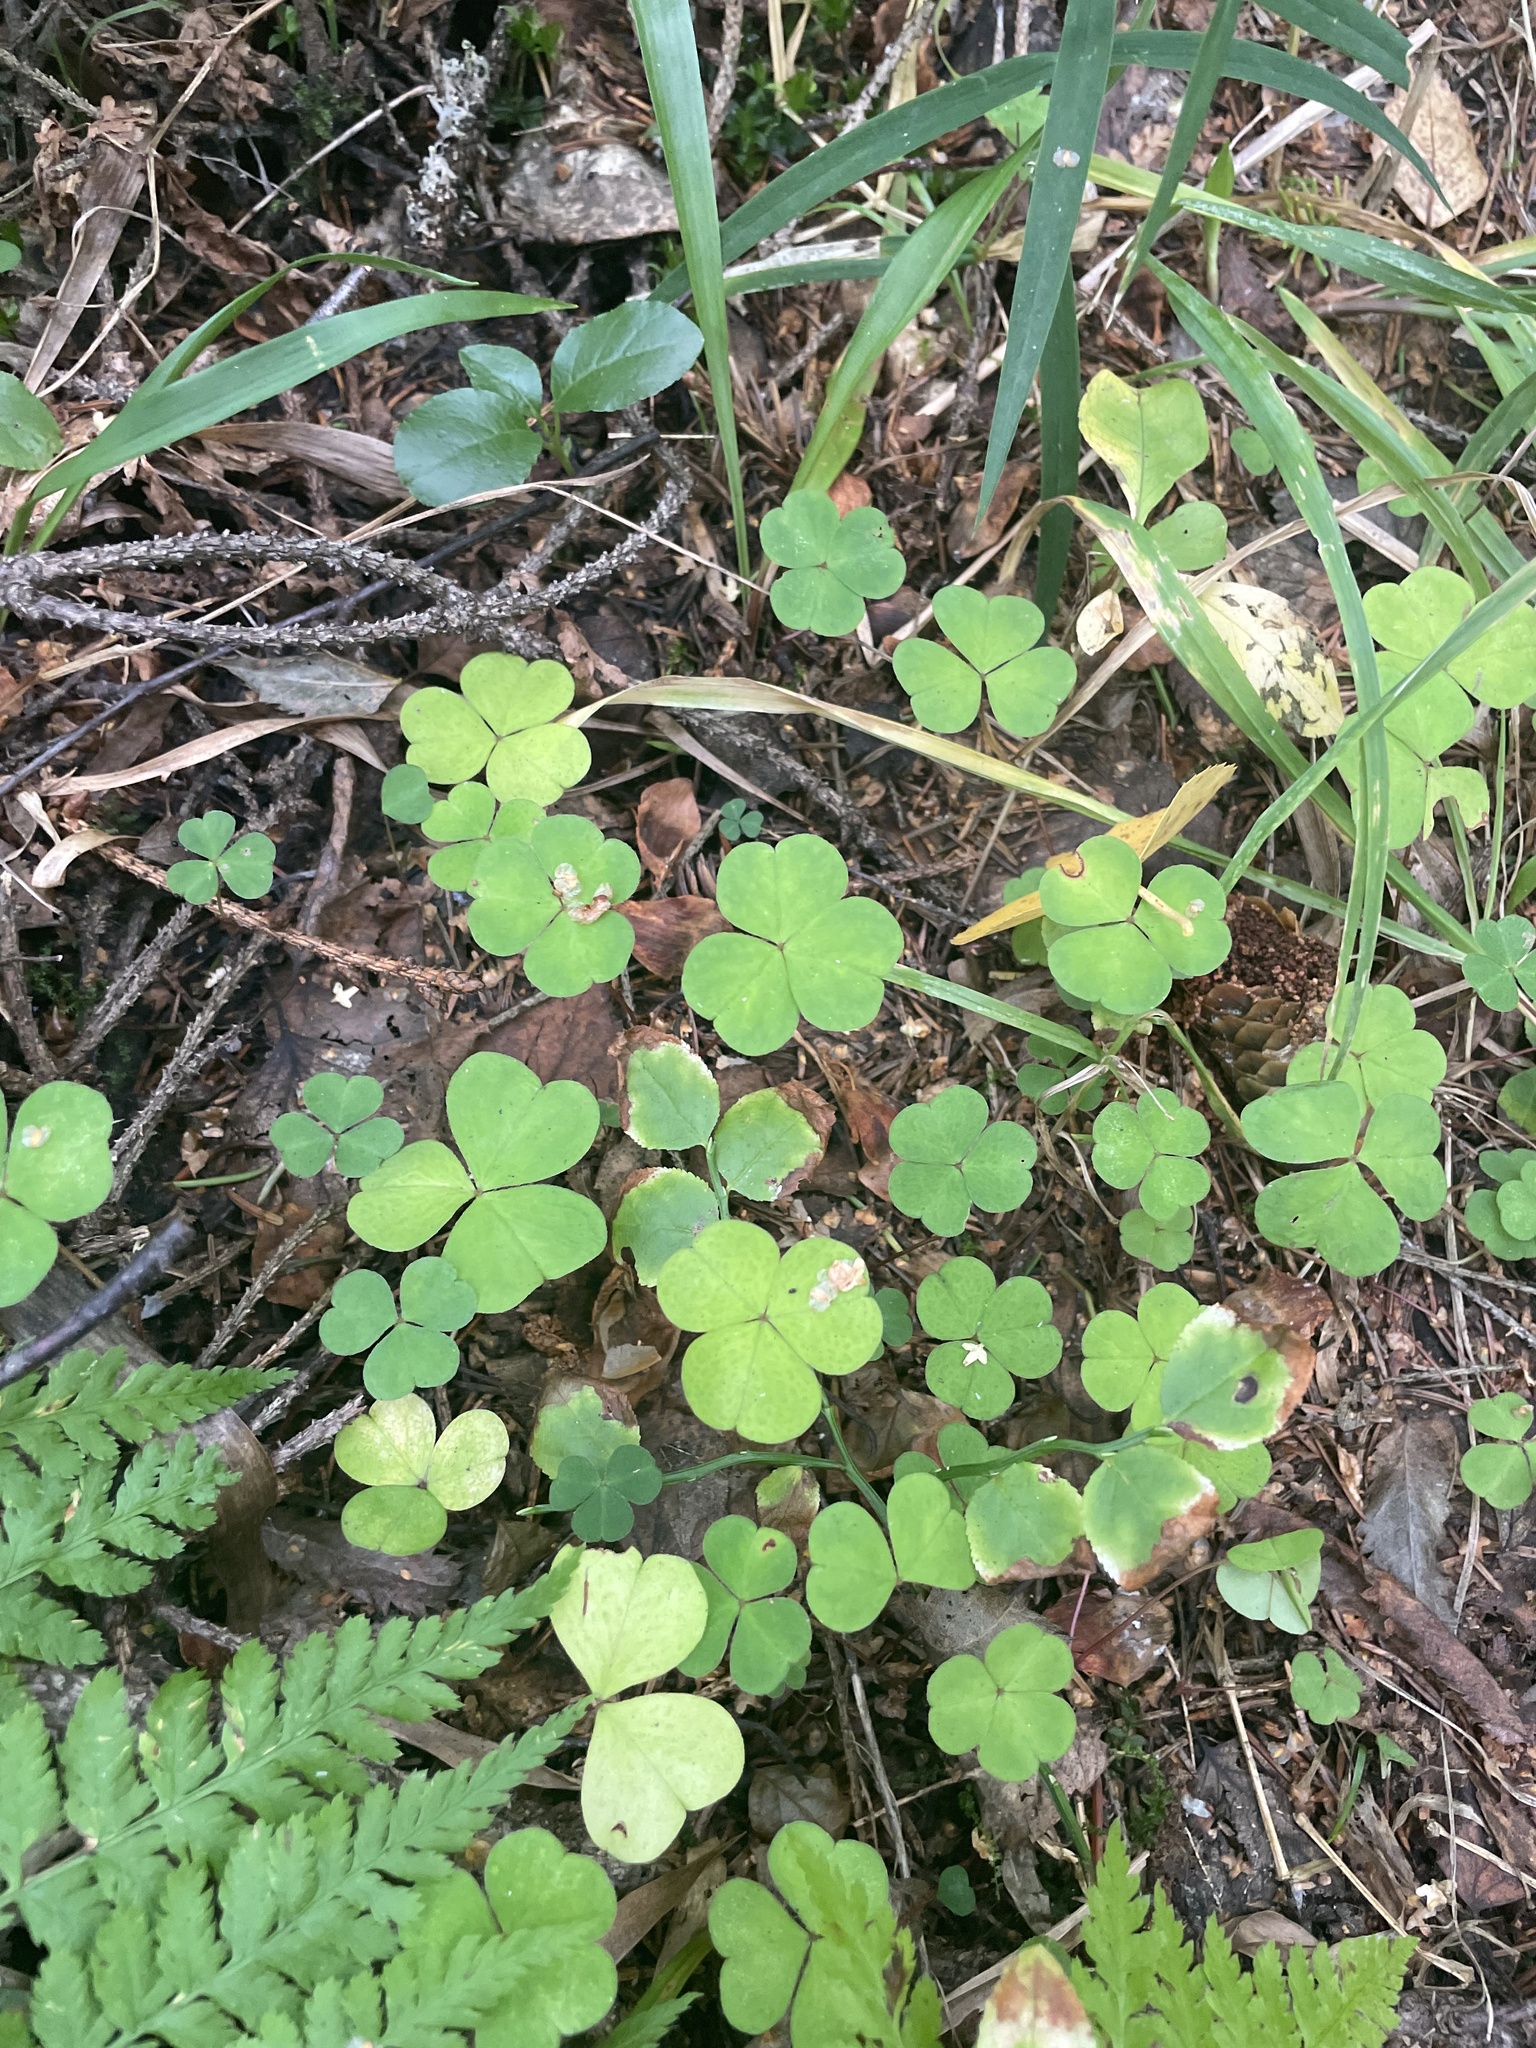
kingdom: Plantae
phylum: Tracheophyta
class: Magnoliopsida
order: Oxalidales
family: Oxalidaceae
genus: Oxalis
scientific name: Oxalis acetosella
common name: Wood-sorrel
